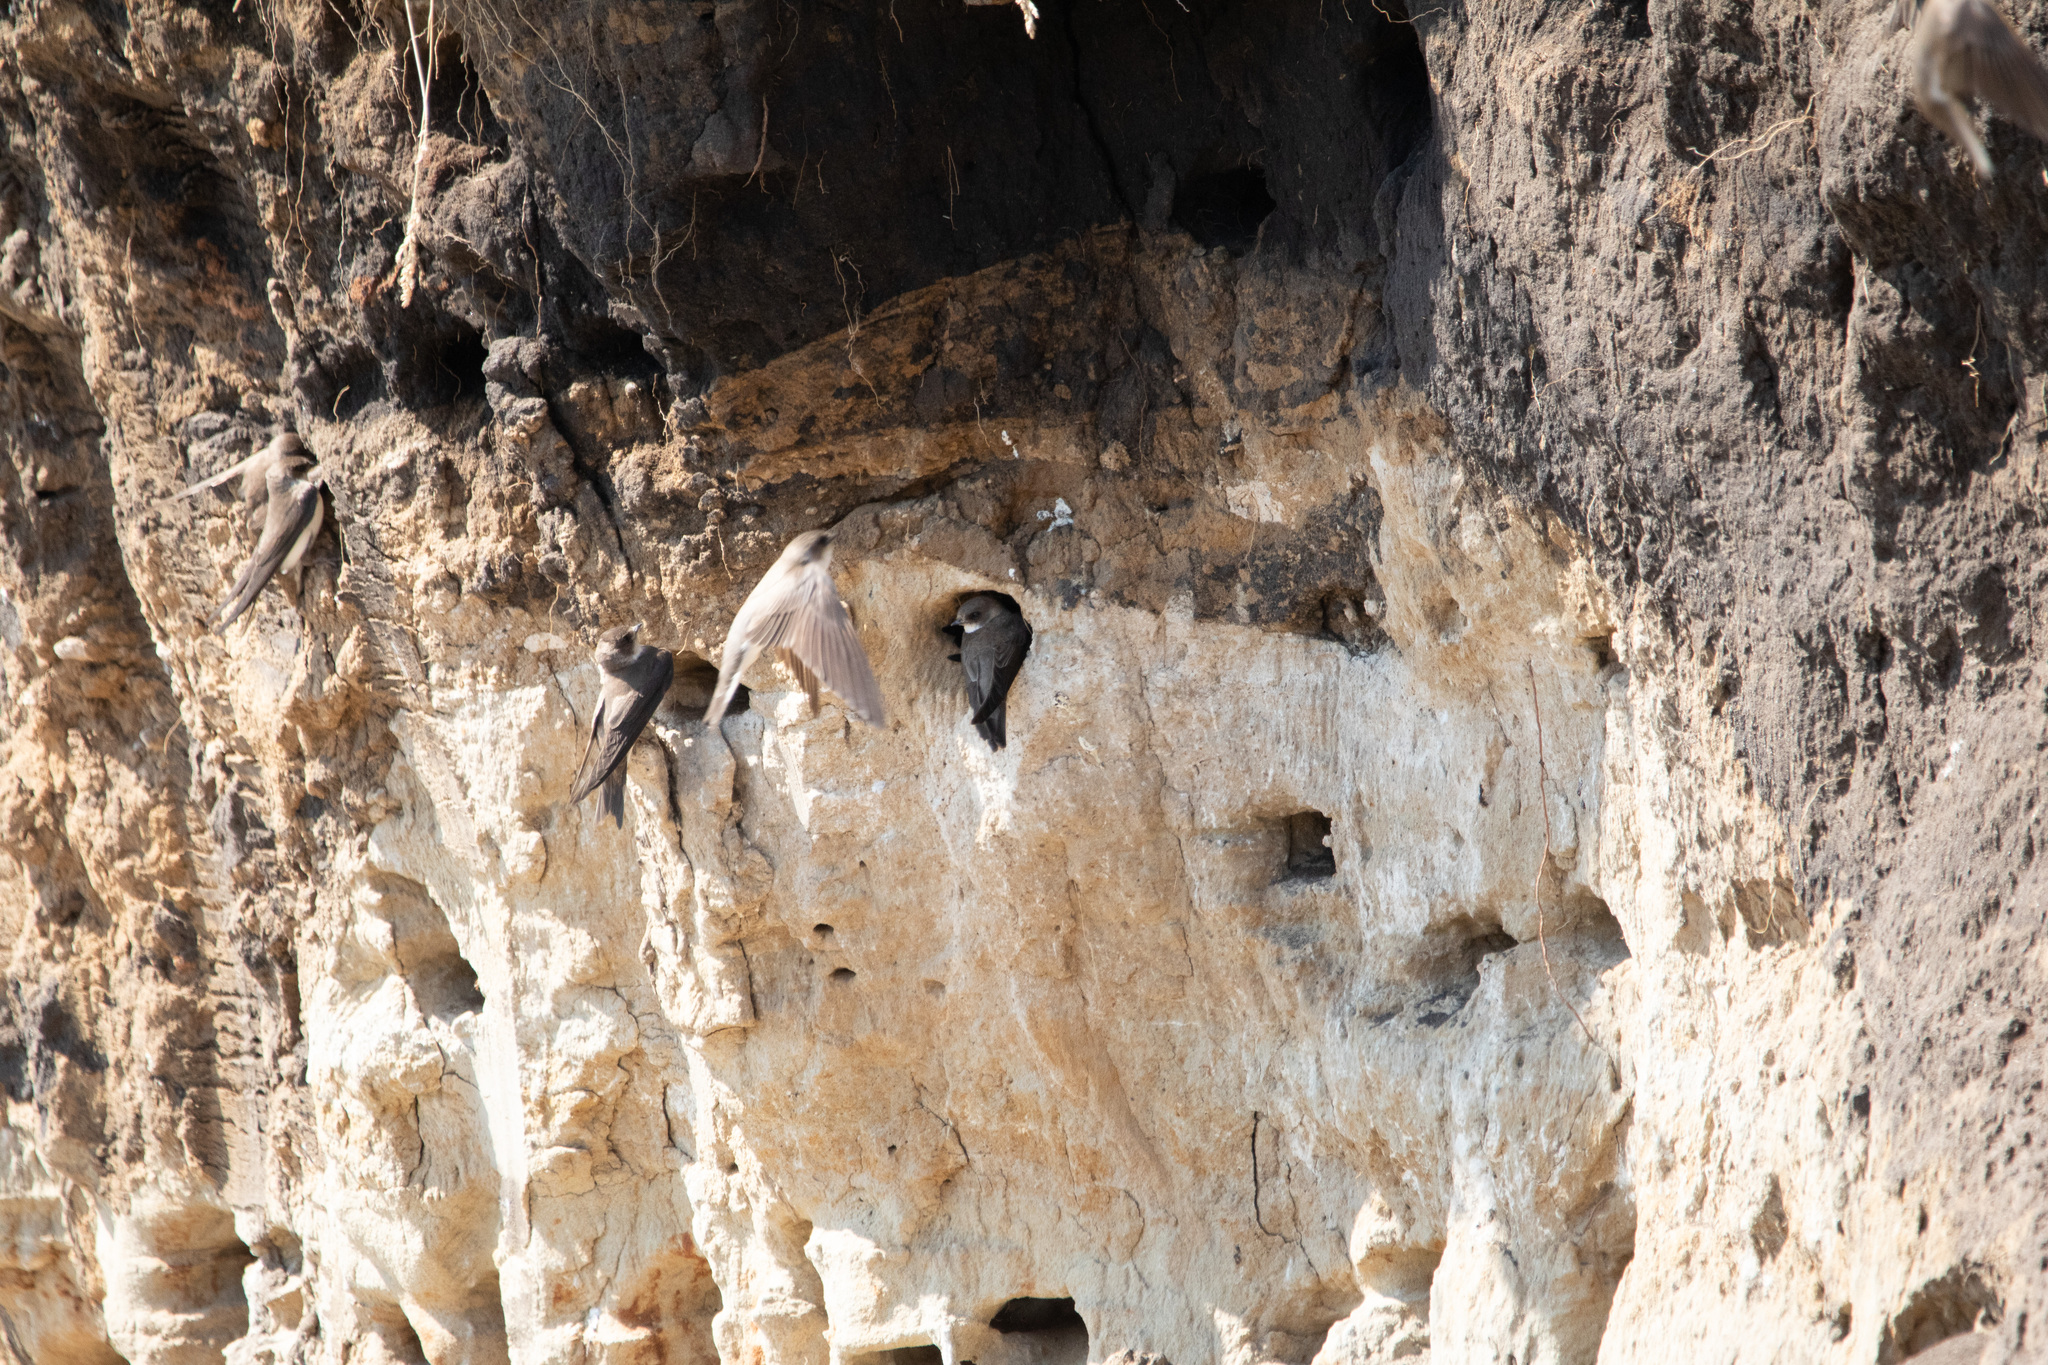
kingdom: Animalia
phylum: Chordata
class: Aves
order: Passeriformes
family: Hirundinidae
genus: Riparia
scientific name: Riparia riparia
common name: Sand martin
